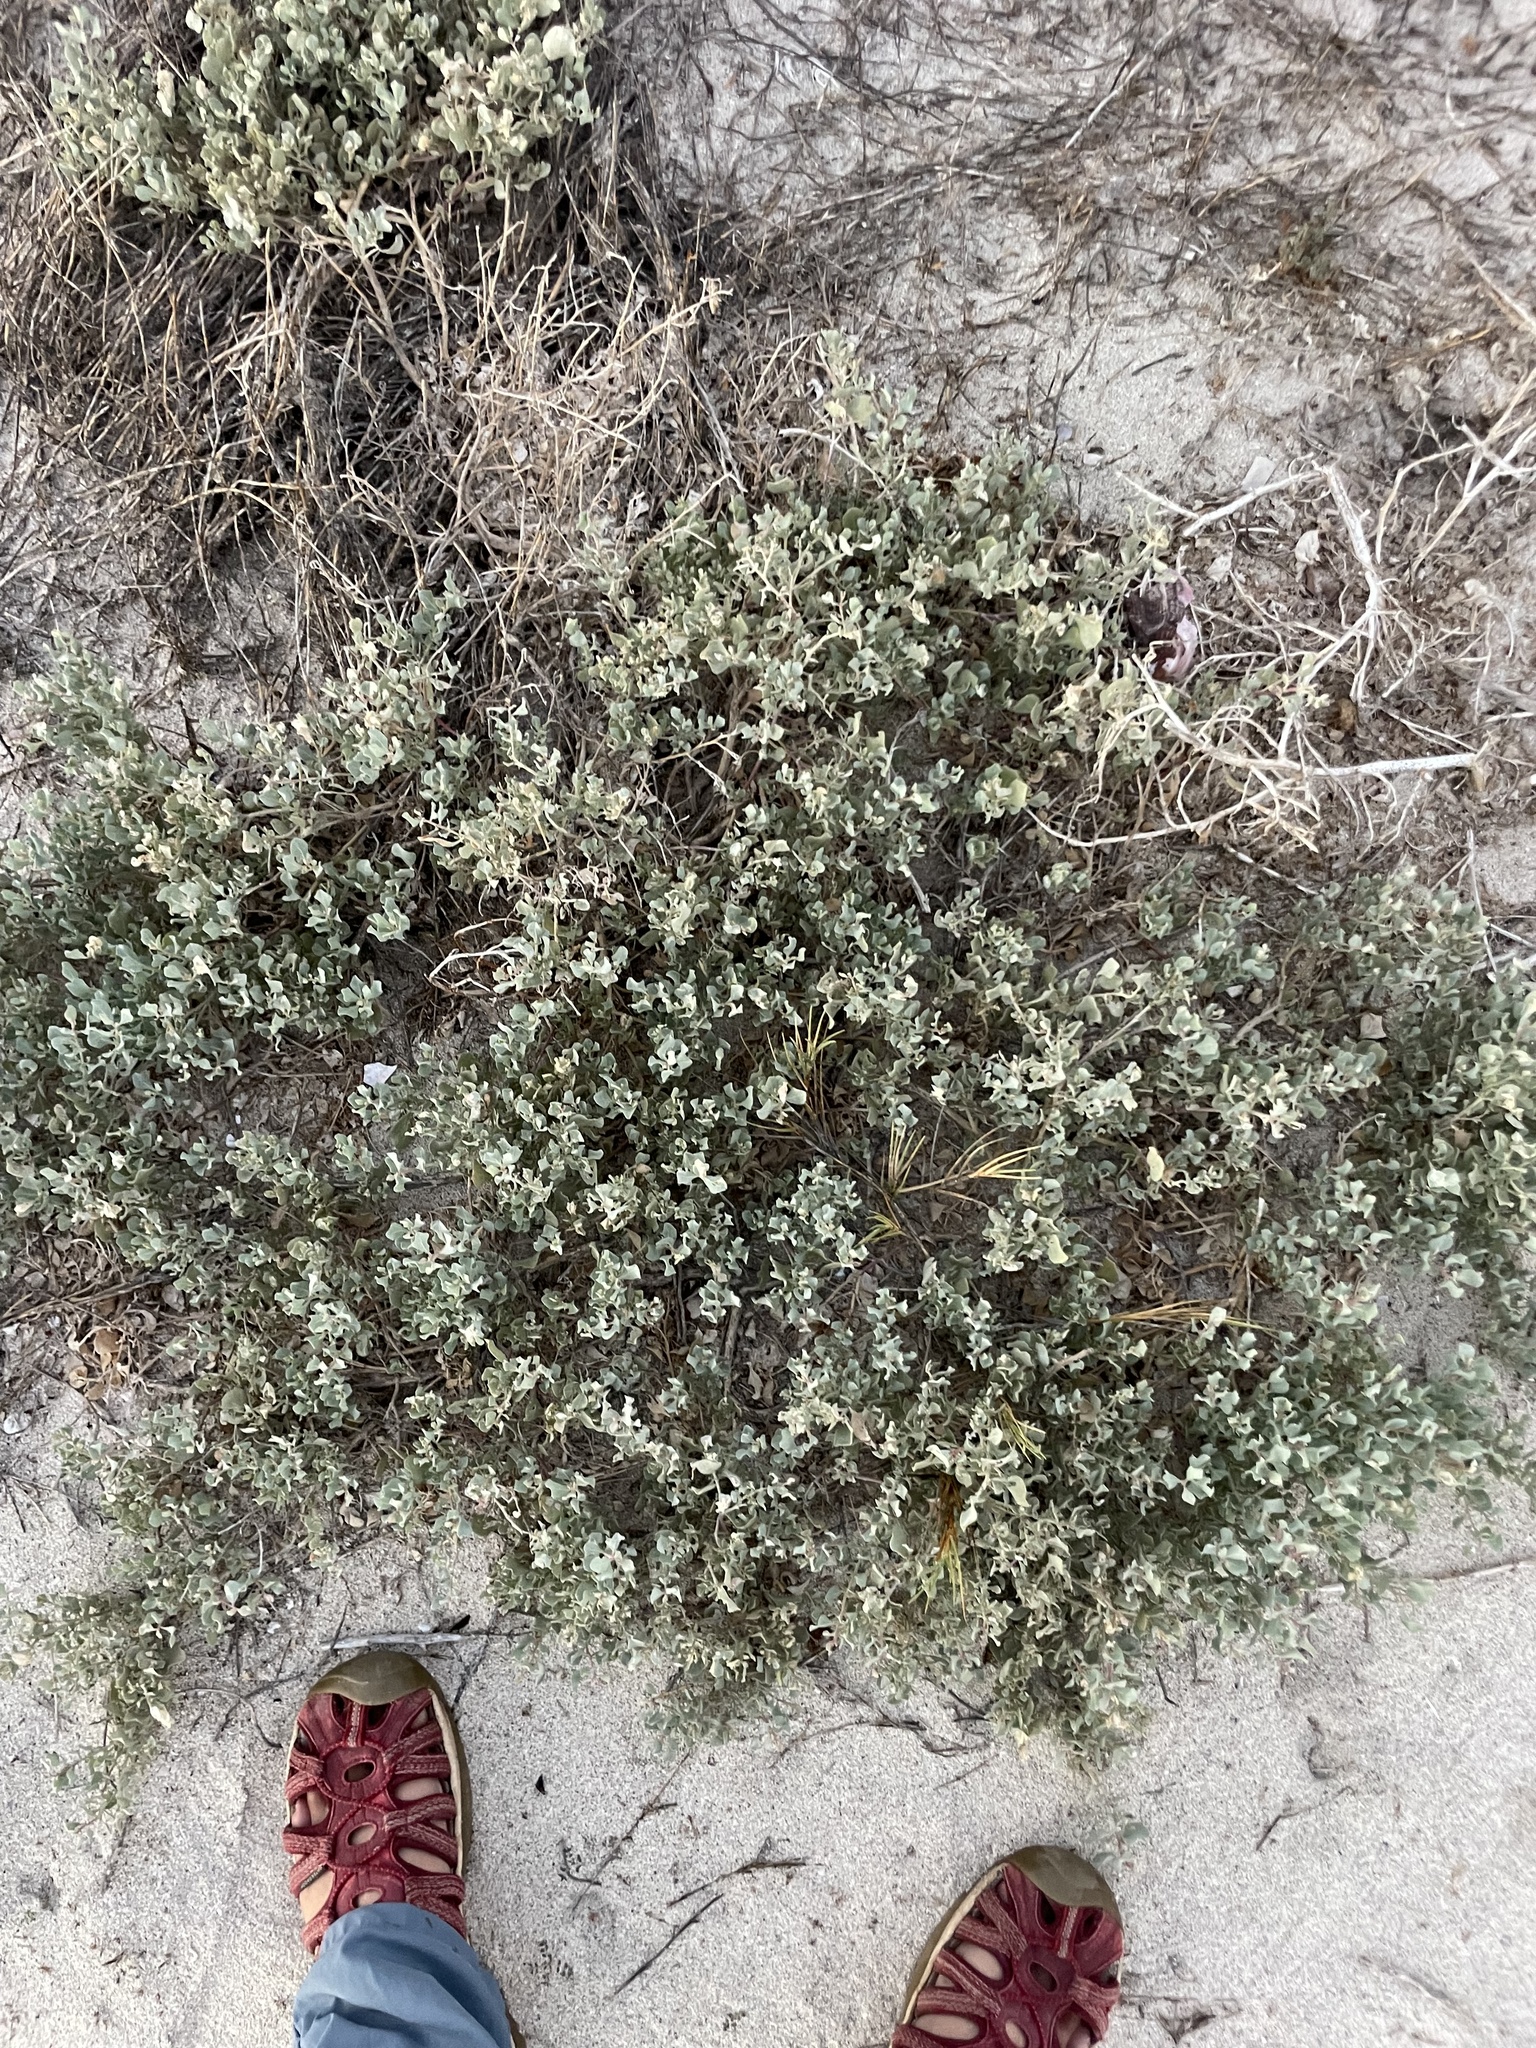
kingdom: Plantae
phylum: Tracheophyta
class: Magnoliopsida
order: Caryophyllales
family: Amaranthaceae
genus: Atriplex
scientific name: Atriplex barclayana
